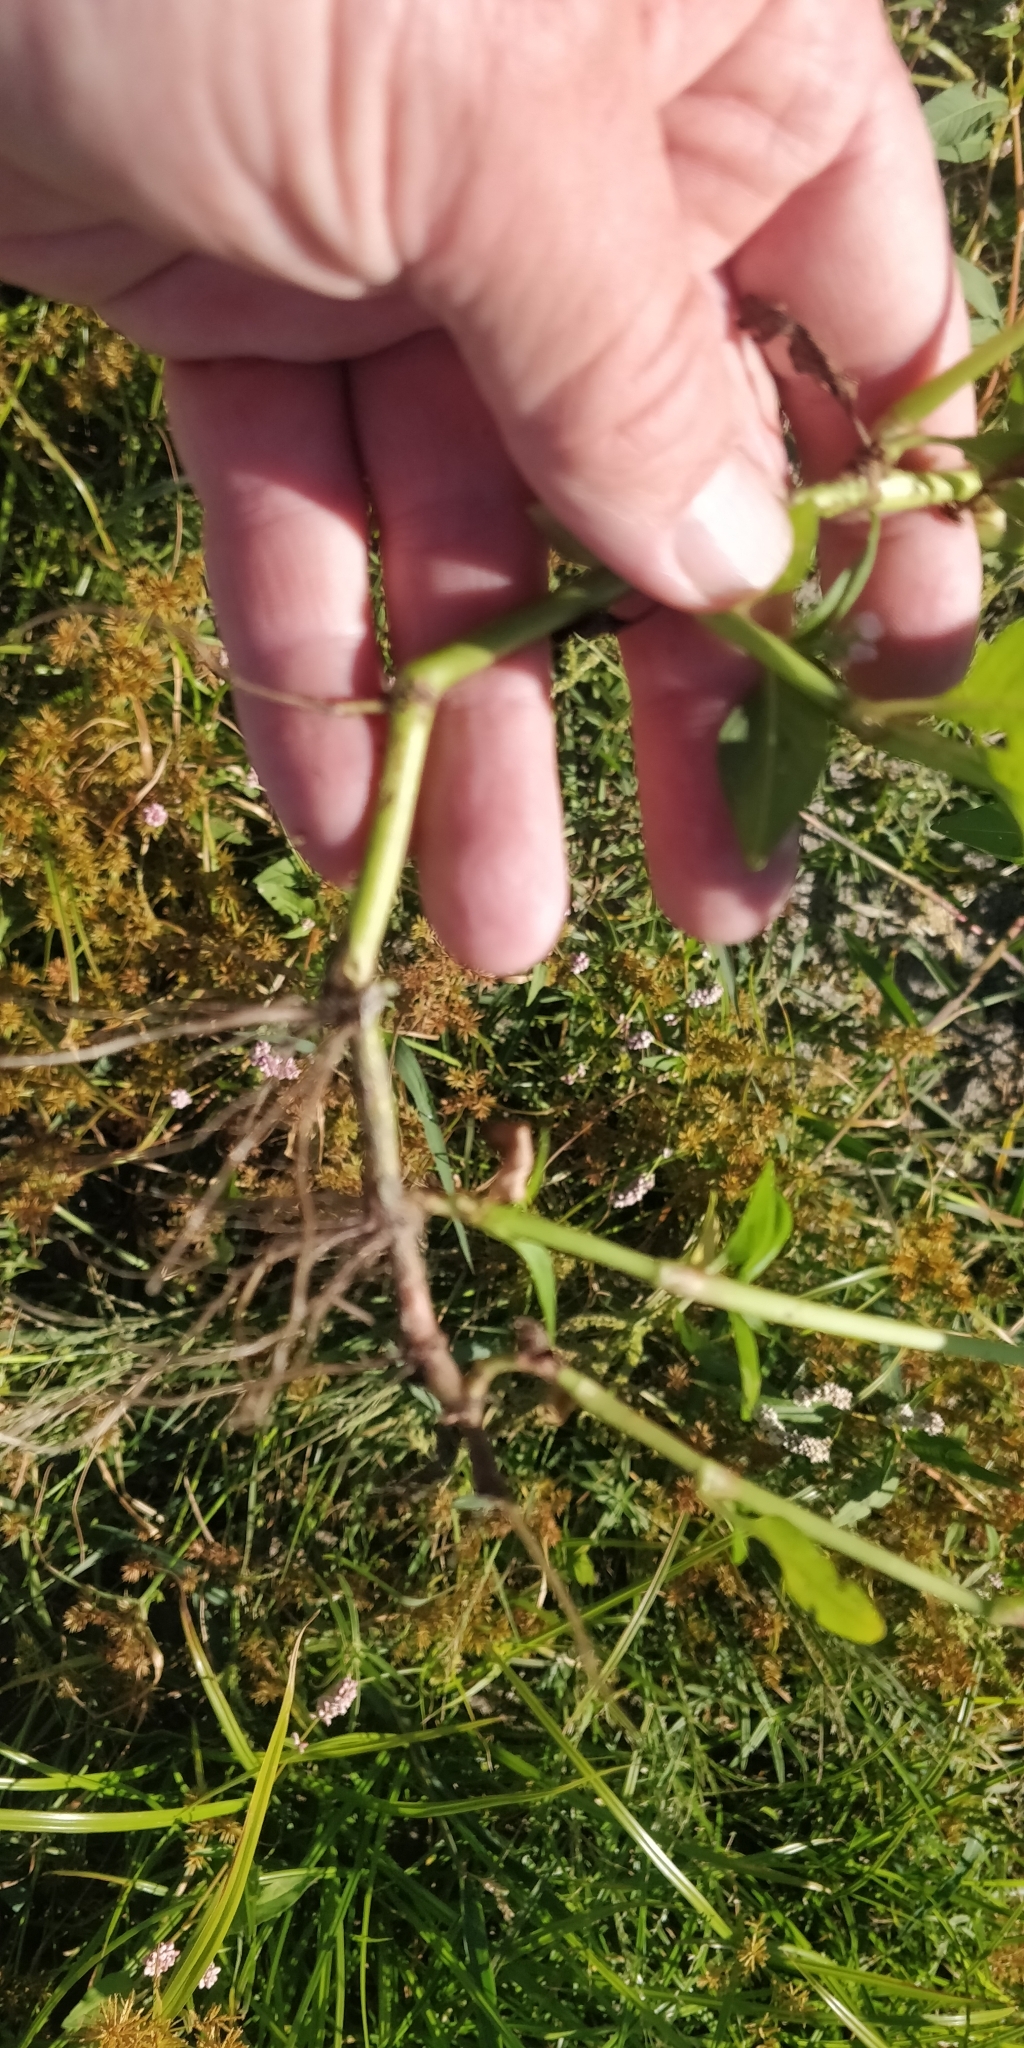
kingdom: Plantae
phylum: Tracheophyta
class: Magnoliopsida
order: Caryophyllales
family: Polygonaceae
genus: Persicaria
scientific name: Persicaria pensylvanica
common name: Pinkweed
